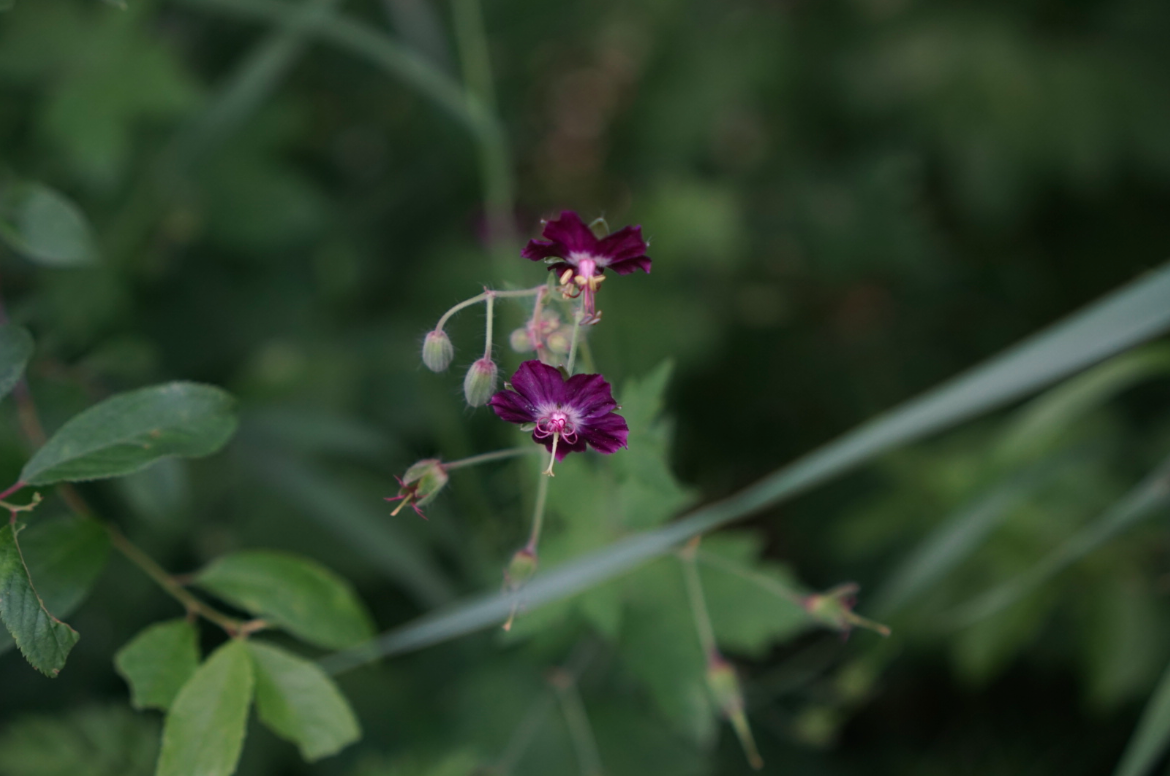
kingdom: Plantae
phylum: Tracheophyta
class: Magnoliopsida
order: Geraniales
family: Geraniaceae
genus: Geranium
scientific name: Geranium phaeum
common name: Dusky crane's-bill
